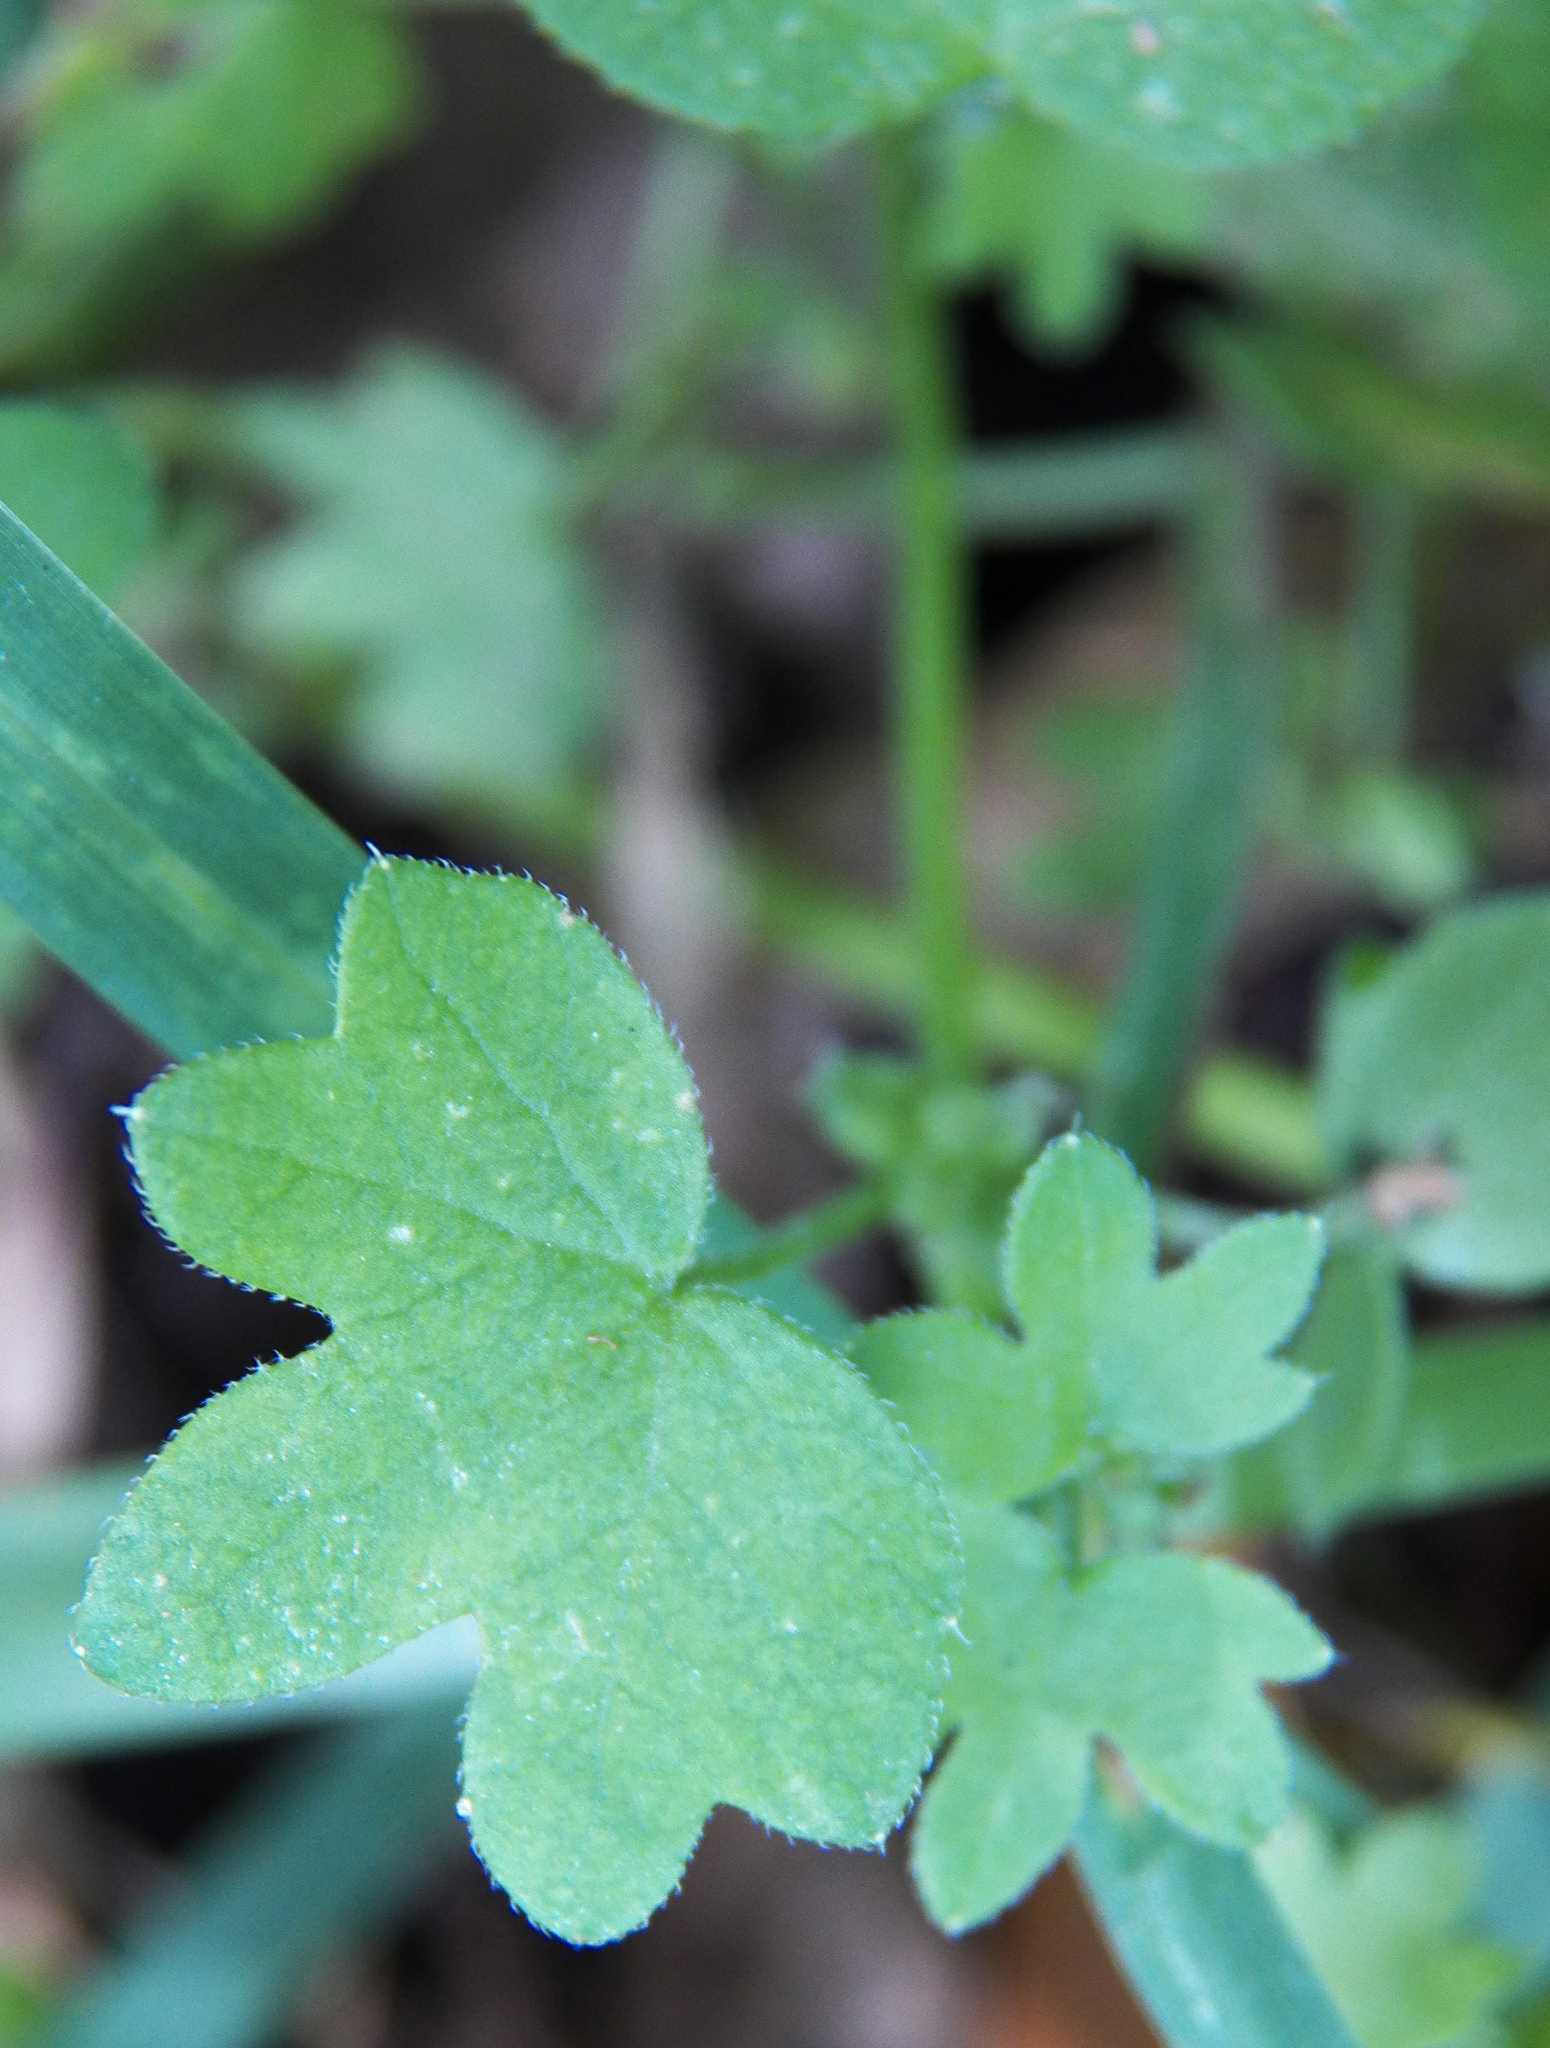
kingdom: Plantae
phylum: Tracheophyta
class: Magnoliopsida
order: Apiales
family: Apiaceae
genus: Bowlesia
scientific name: Bowlesia incana
